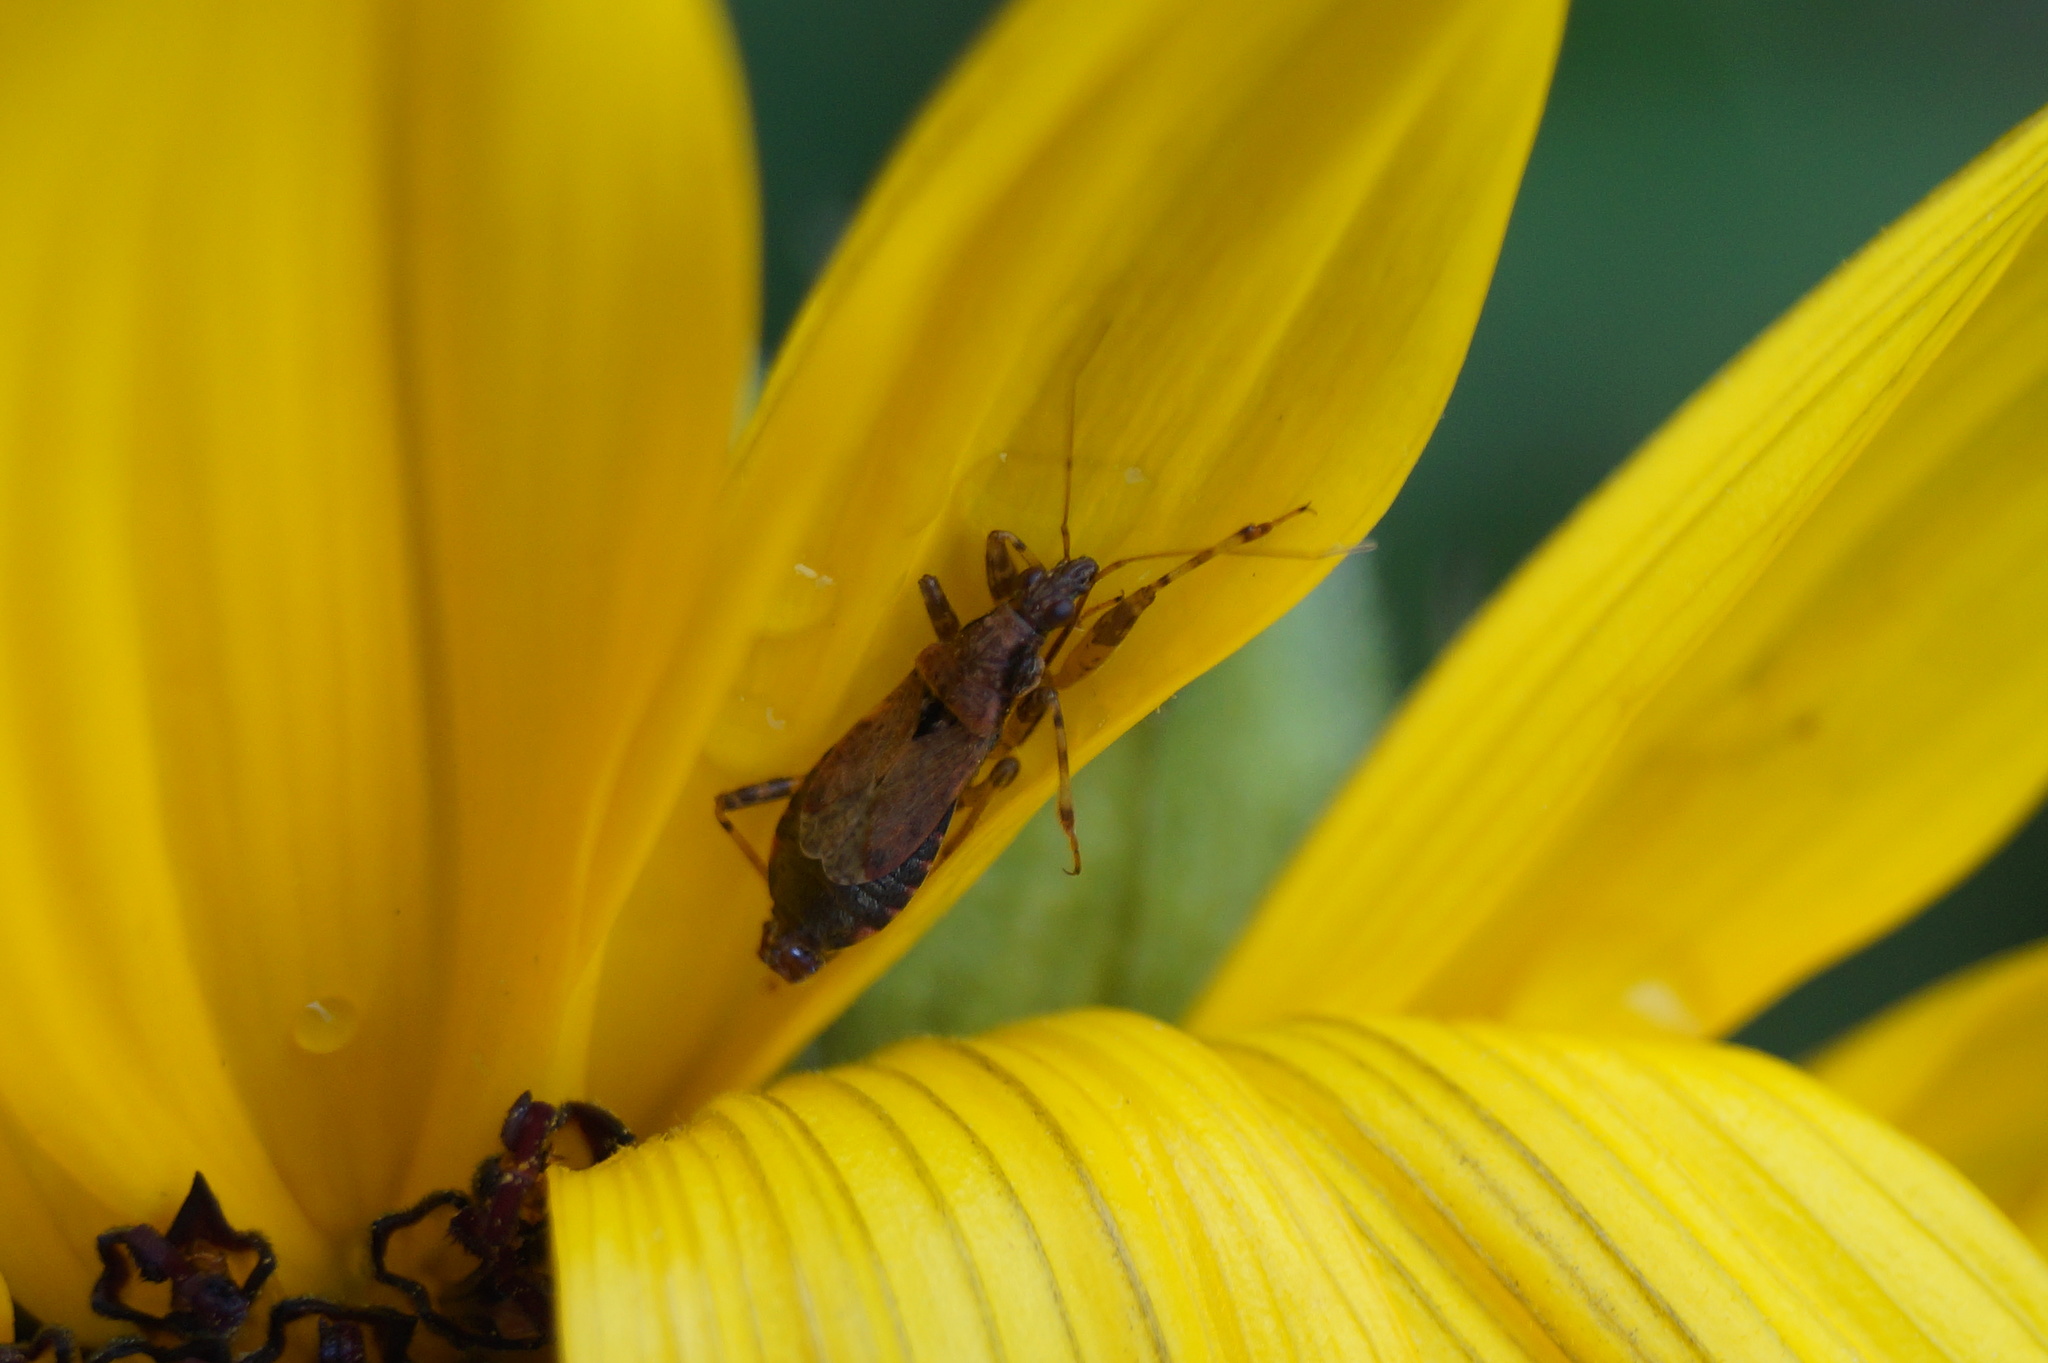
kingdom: Animalia
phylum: Arthropoda
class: Insecta
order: Hemiptera
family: Nabidae
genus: Himacerus
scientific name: Himacerus mirmicoides
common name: Ant damsel bug
